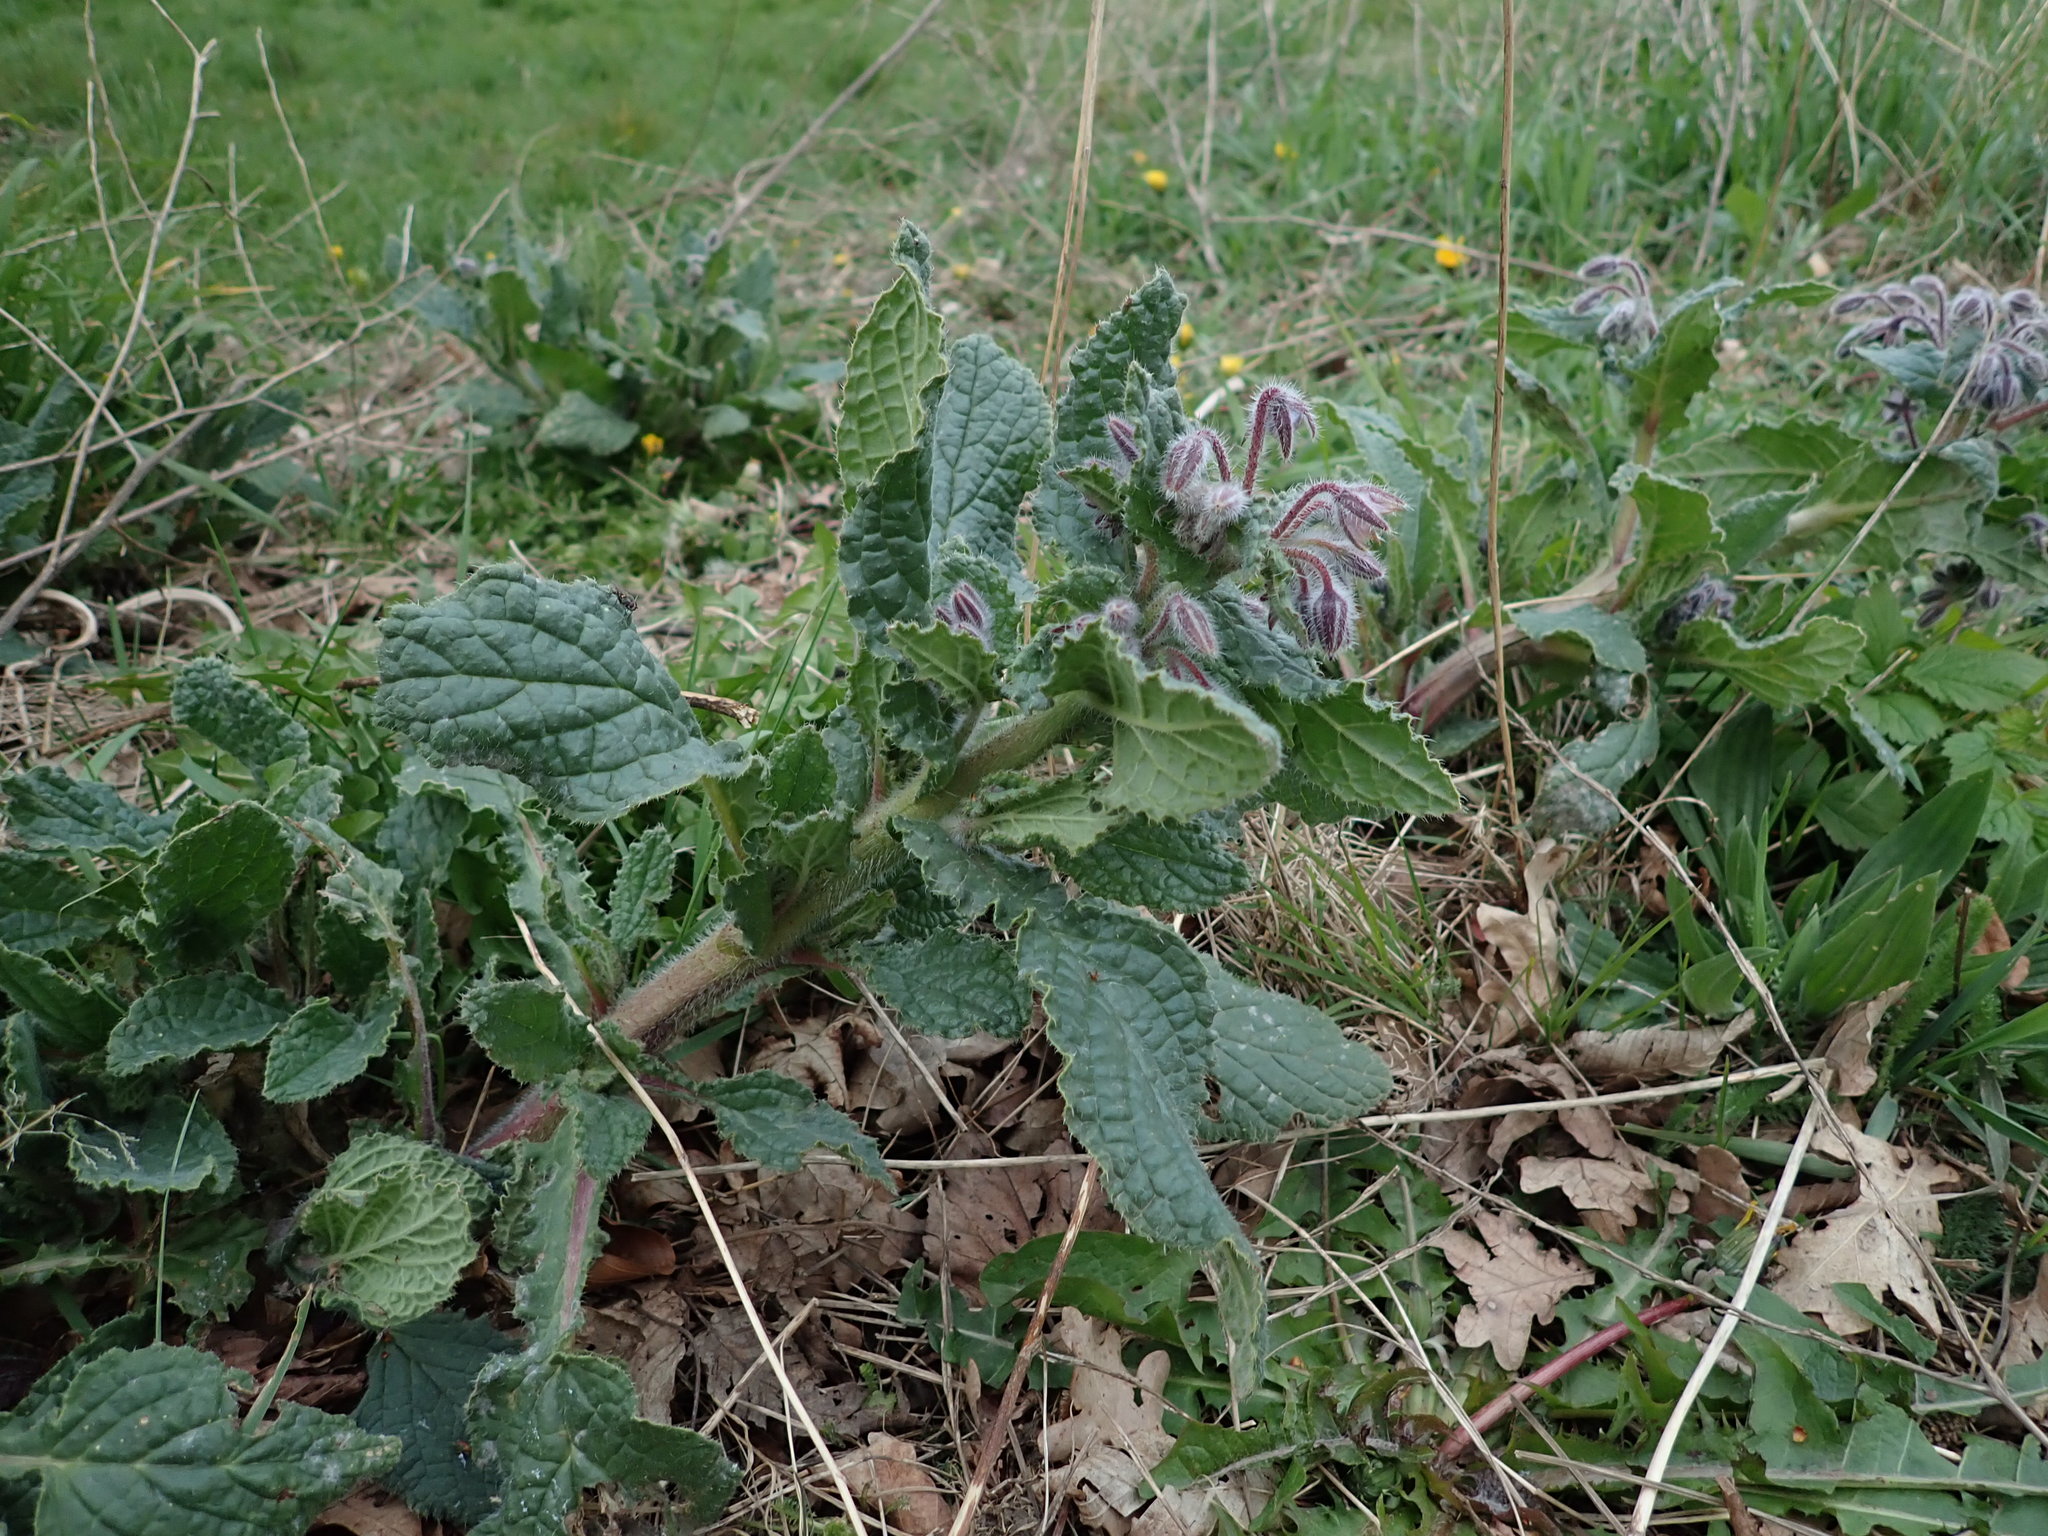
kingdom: Plantae
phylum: Tracheophyta
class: Magnoliopsida
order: Boraginales
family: Boraginaceae
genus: Borago
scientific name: Borago officinalis
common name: Borage
